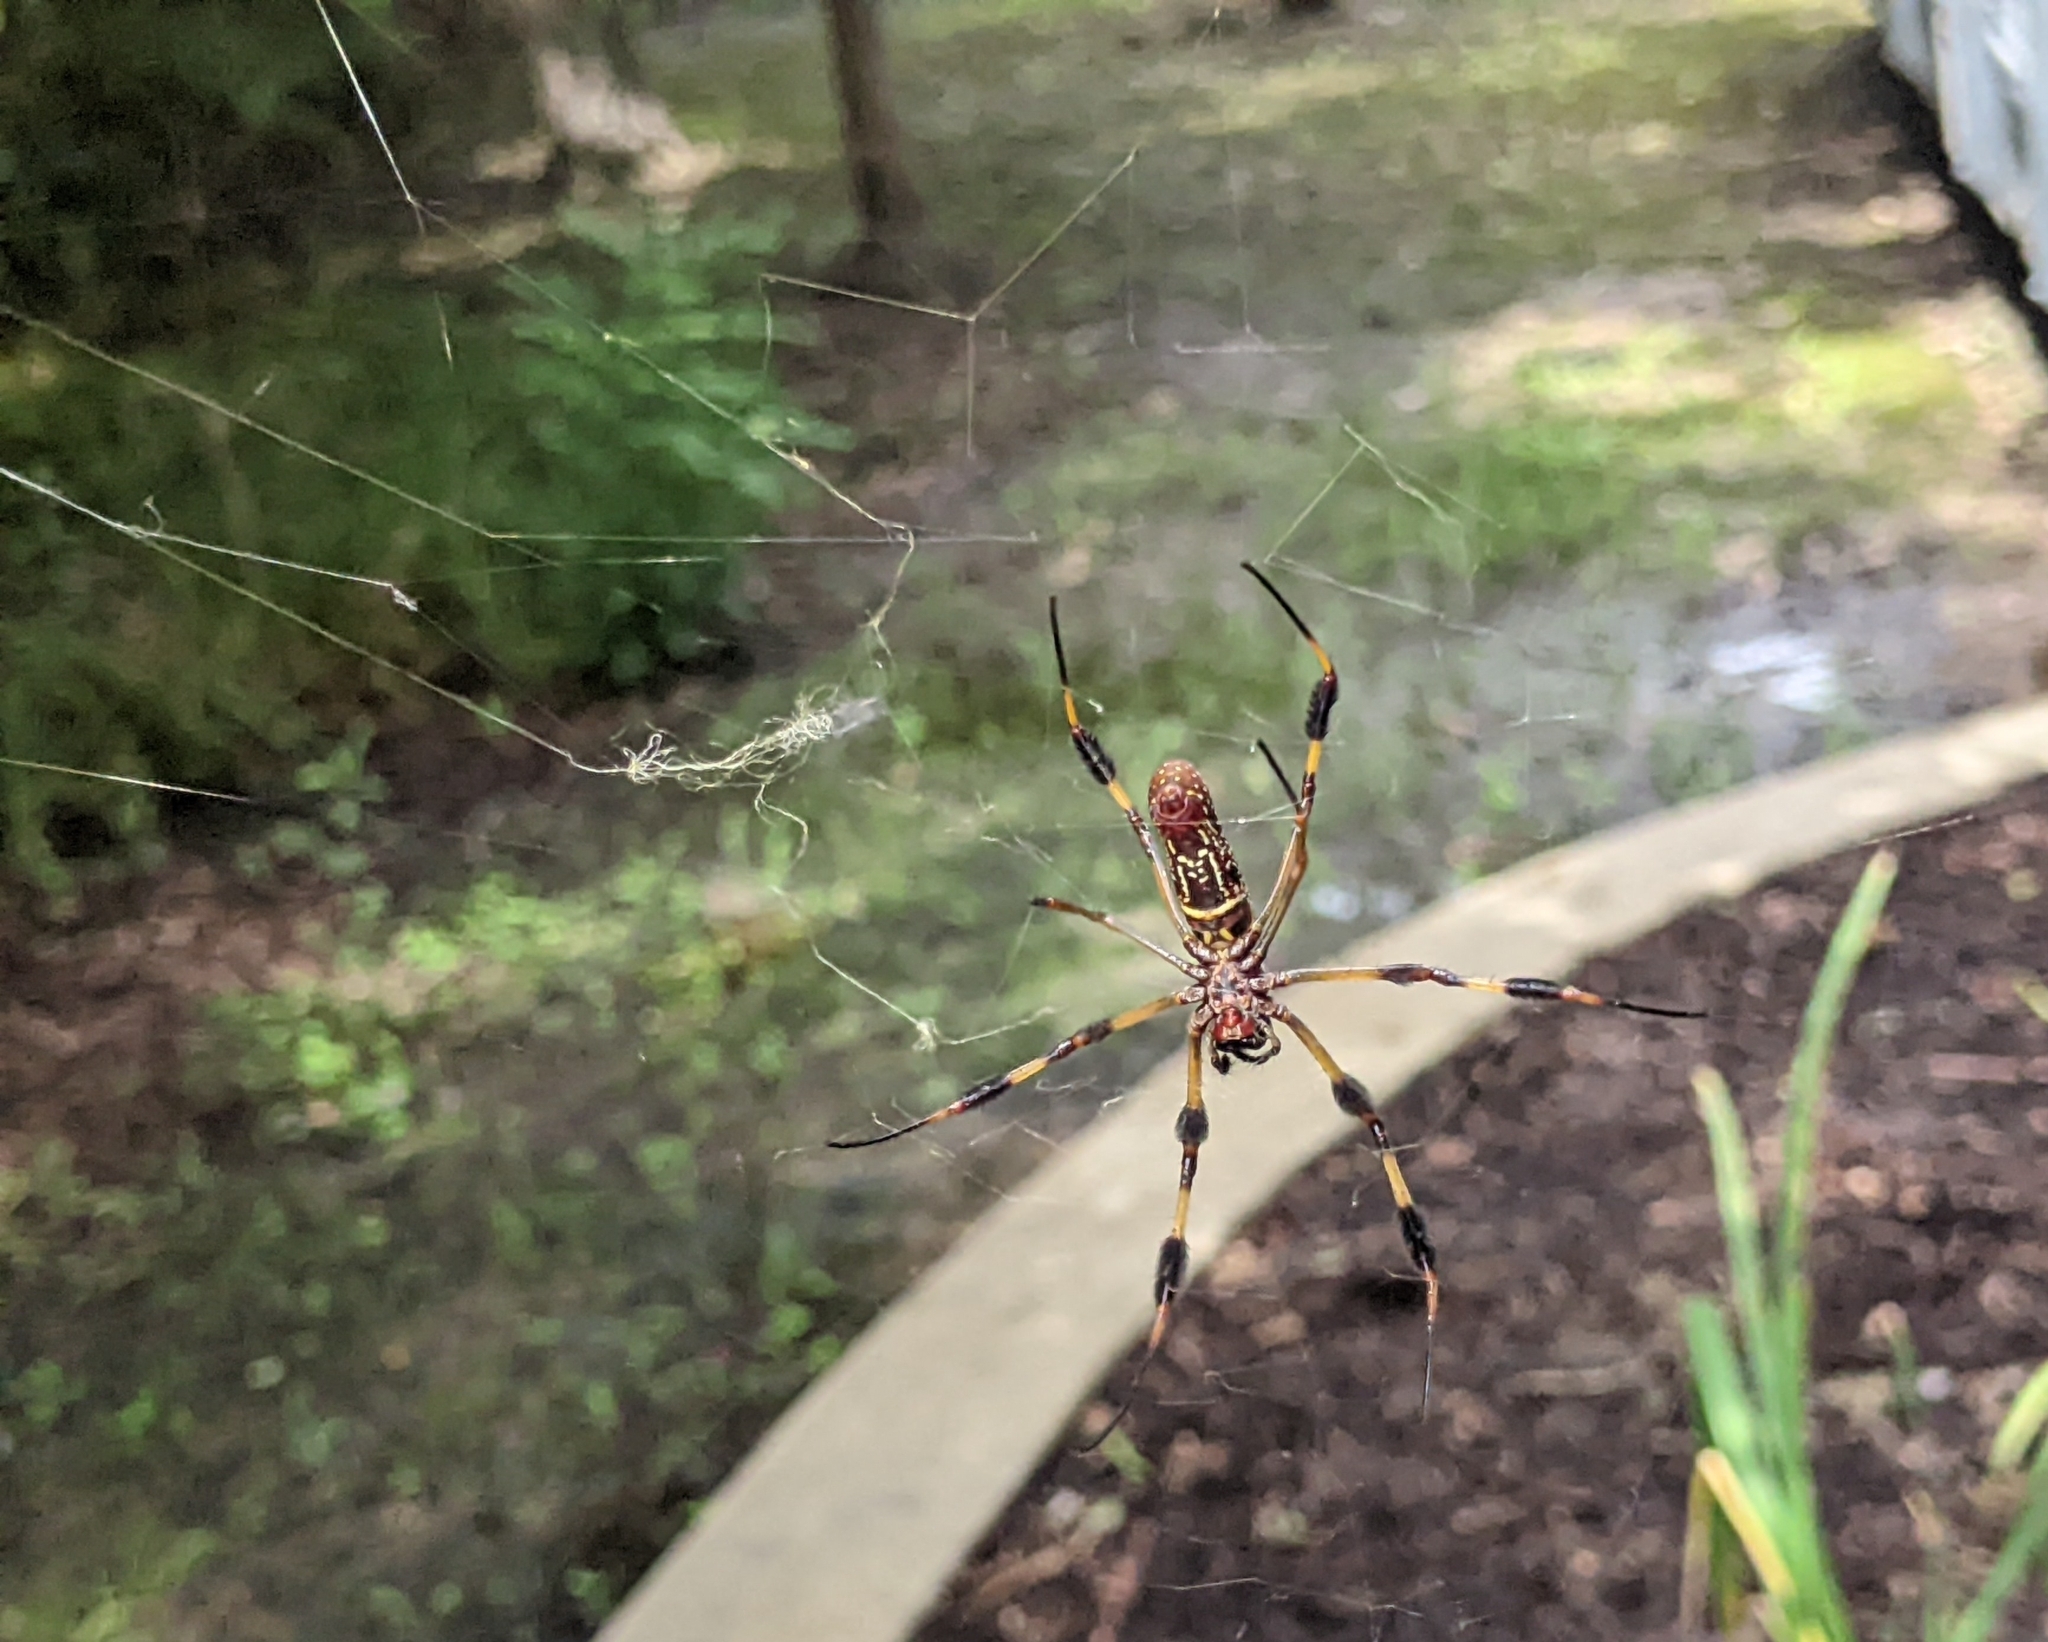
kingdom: Animalia
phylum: Arthropoda
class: Arachnida
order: Araneae
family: Araneidae
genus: Trichonephila
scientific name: Trichonephila clavipes
